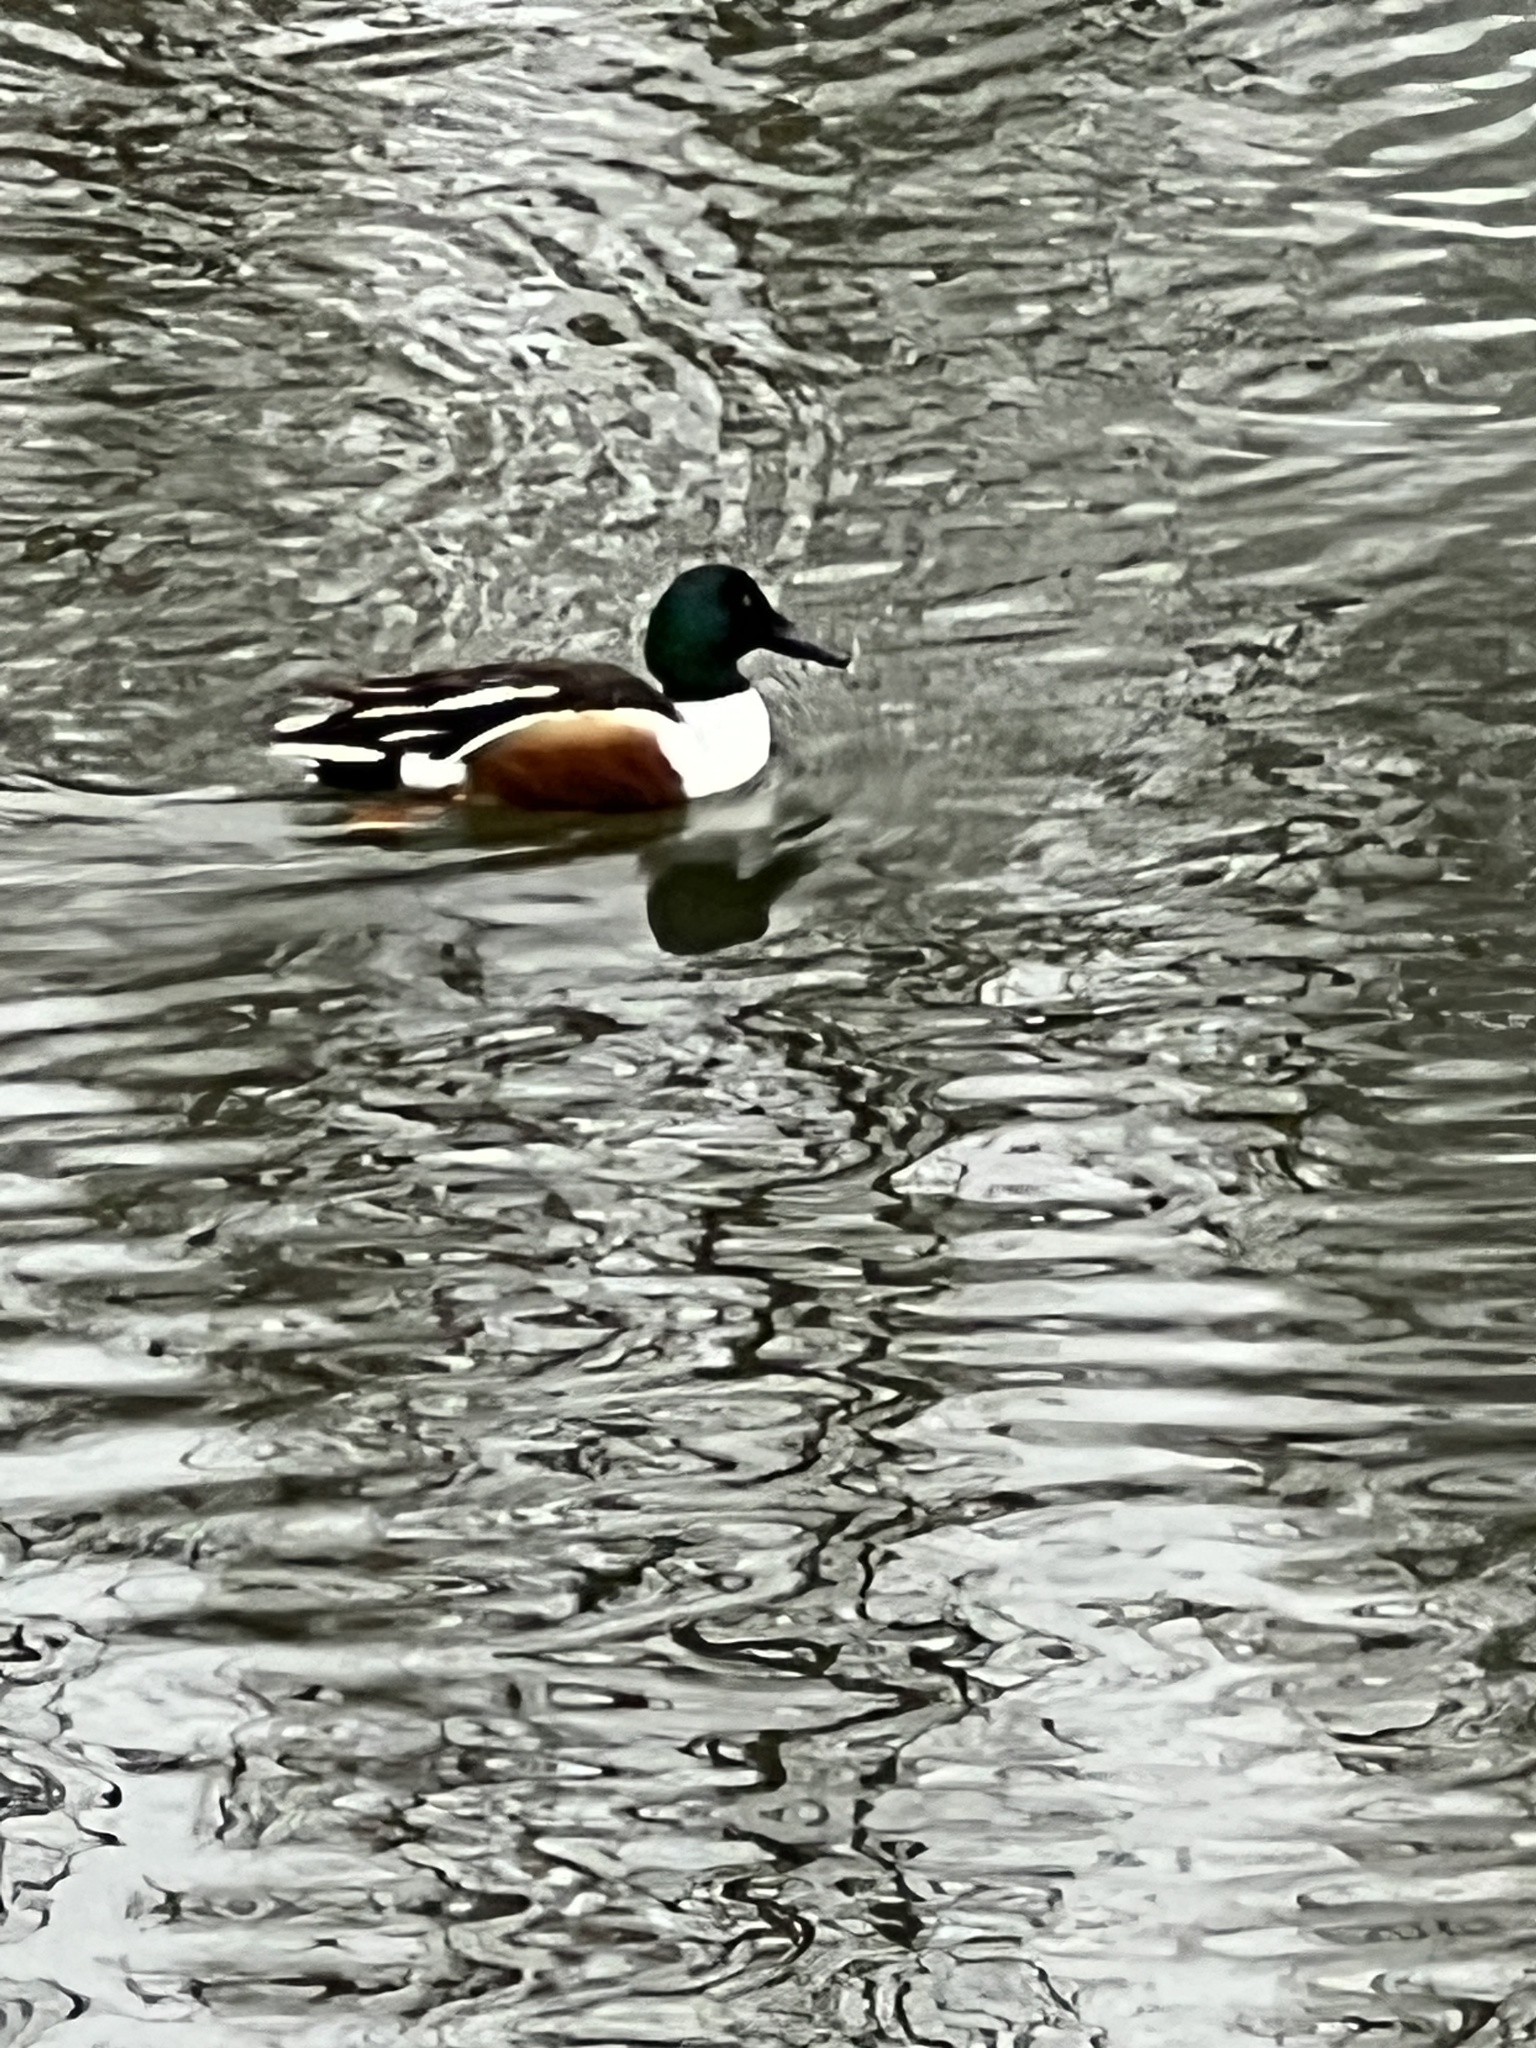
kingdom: Animalia
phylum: Chordata
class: Aves
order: Anseriformes
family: Anatidae
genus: Spatula
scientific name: Spatula clypeata
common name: Northern shoveler
